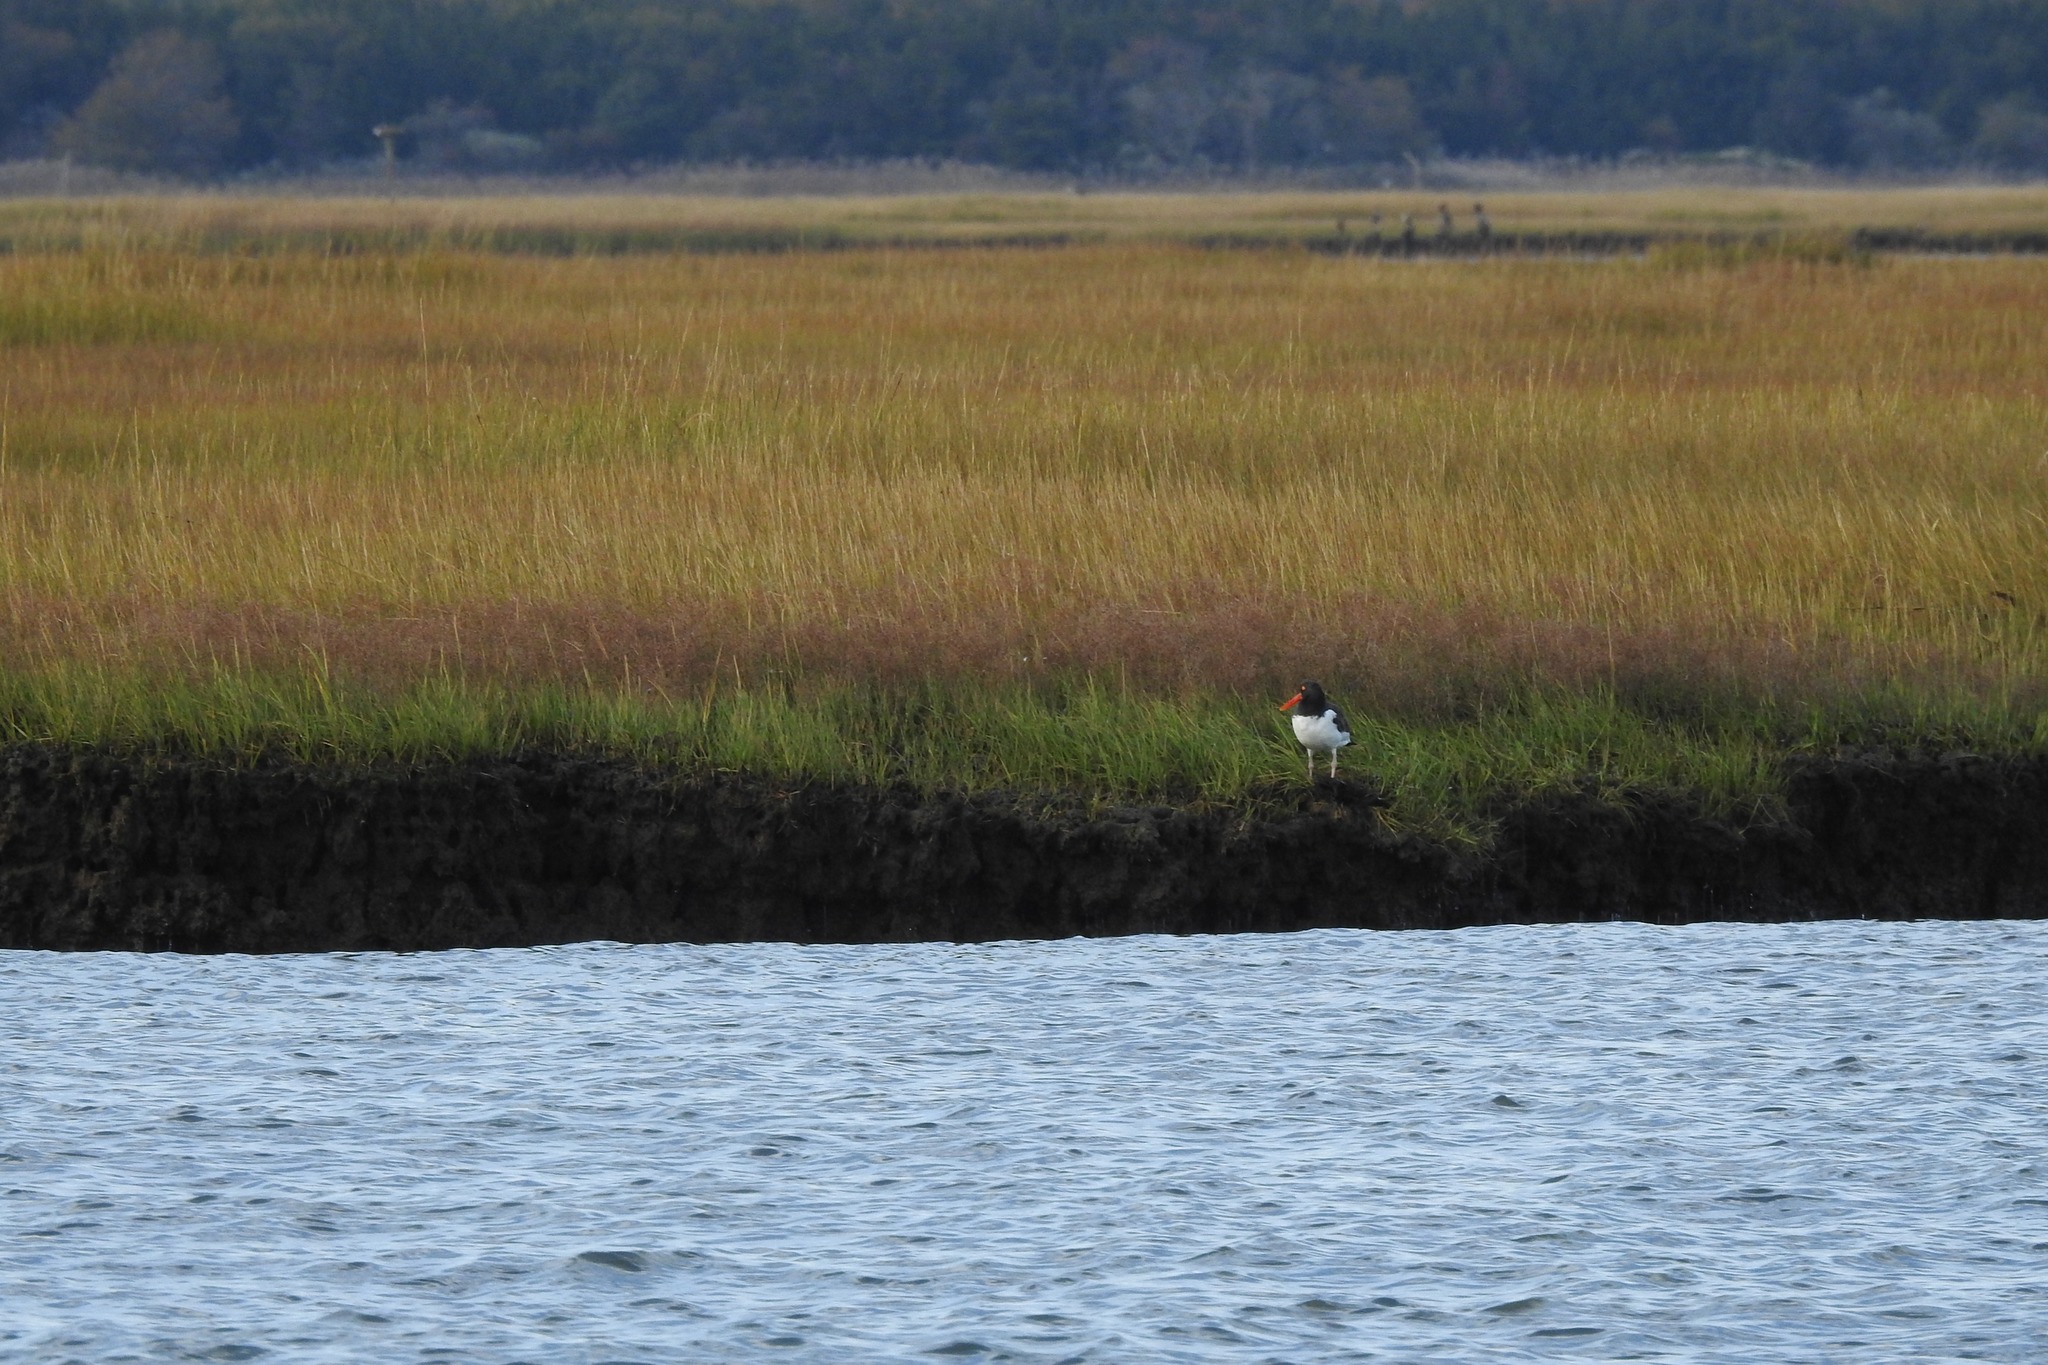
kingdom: Animalia
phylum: Chordata
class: Aves
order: Charadriiformes
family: Haematopodidae
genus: Haematopus
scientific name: Haematopus palliatus
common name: American oystercatcher
